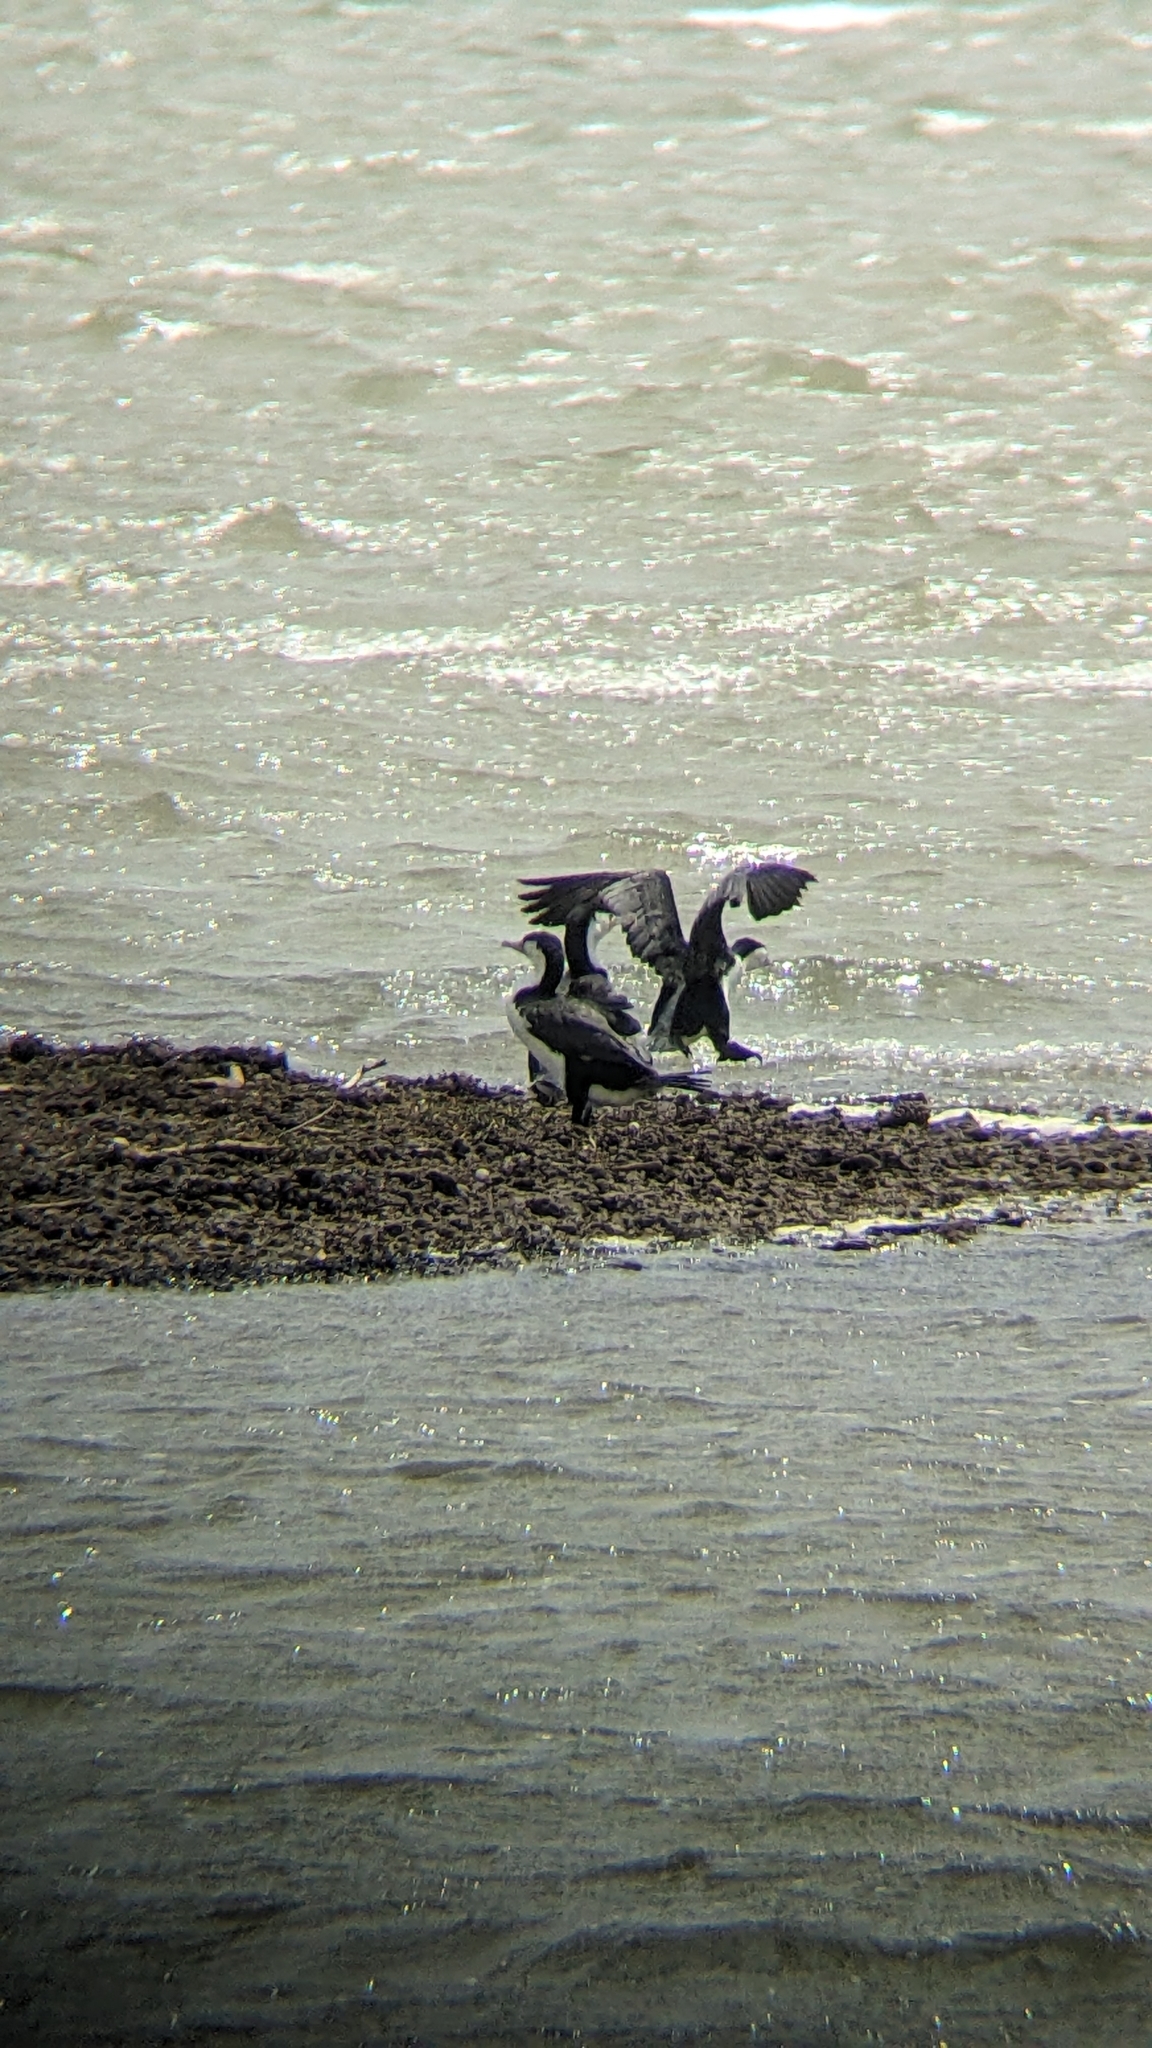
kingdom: Animalia
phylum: Chordata
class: Aves
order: Suliformes
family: Phalacrocoracidae
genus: Phalacrocorax
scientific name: Phalacrocorax varius
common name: Pied cormorant
